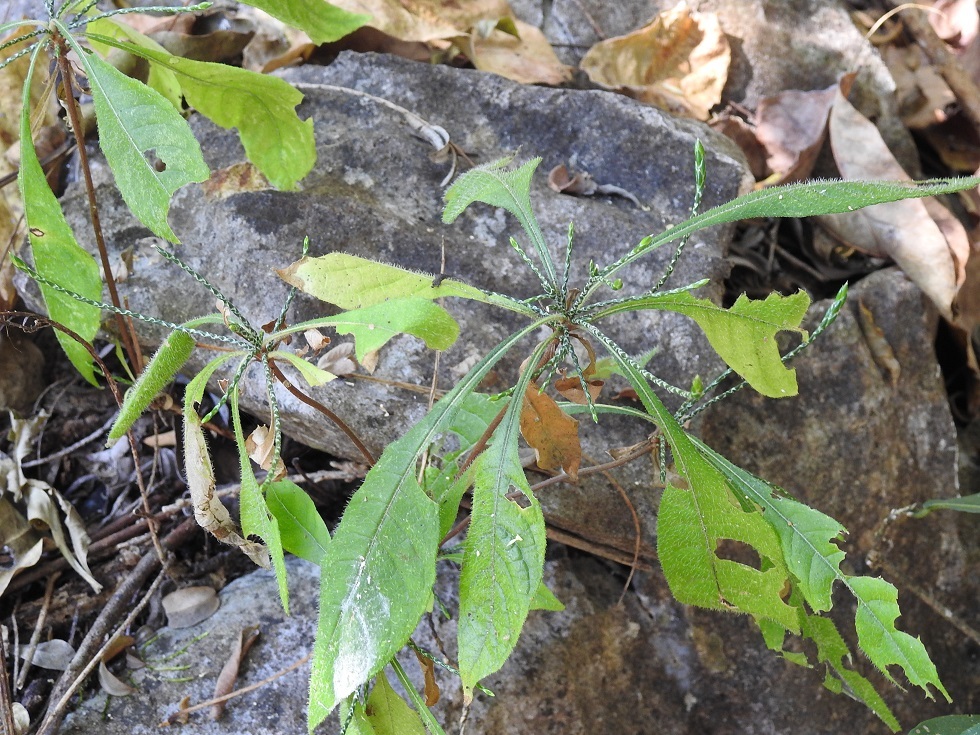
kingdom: Plantae
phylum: Tracheophyta
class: Magnoliopsida
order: Lamiales
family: Acanthaceae
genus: Elytraria
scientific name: Elytraria imbricata
